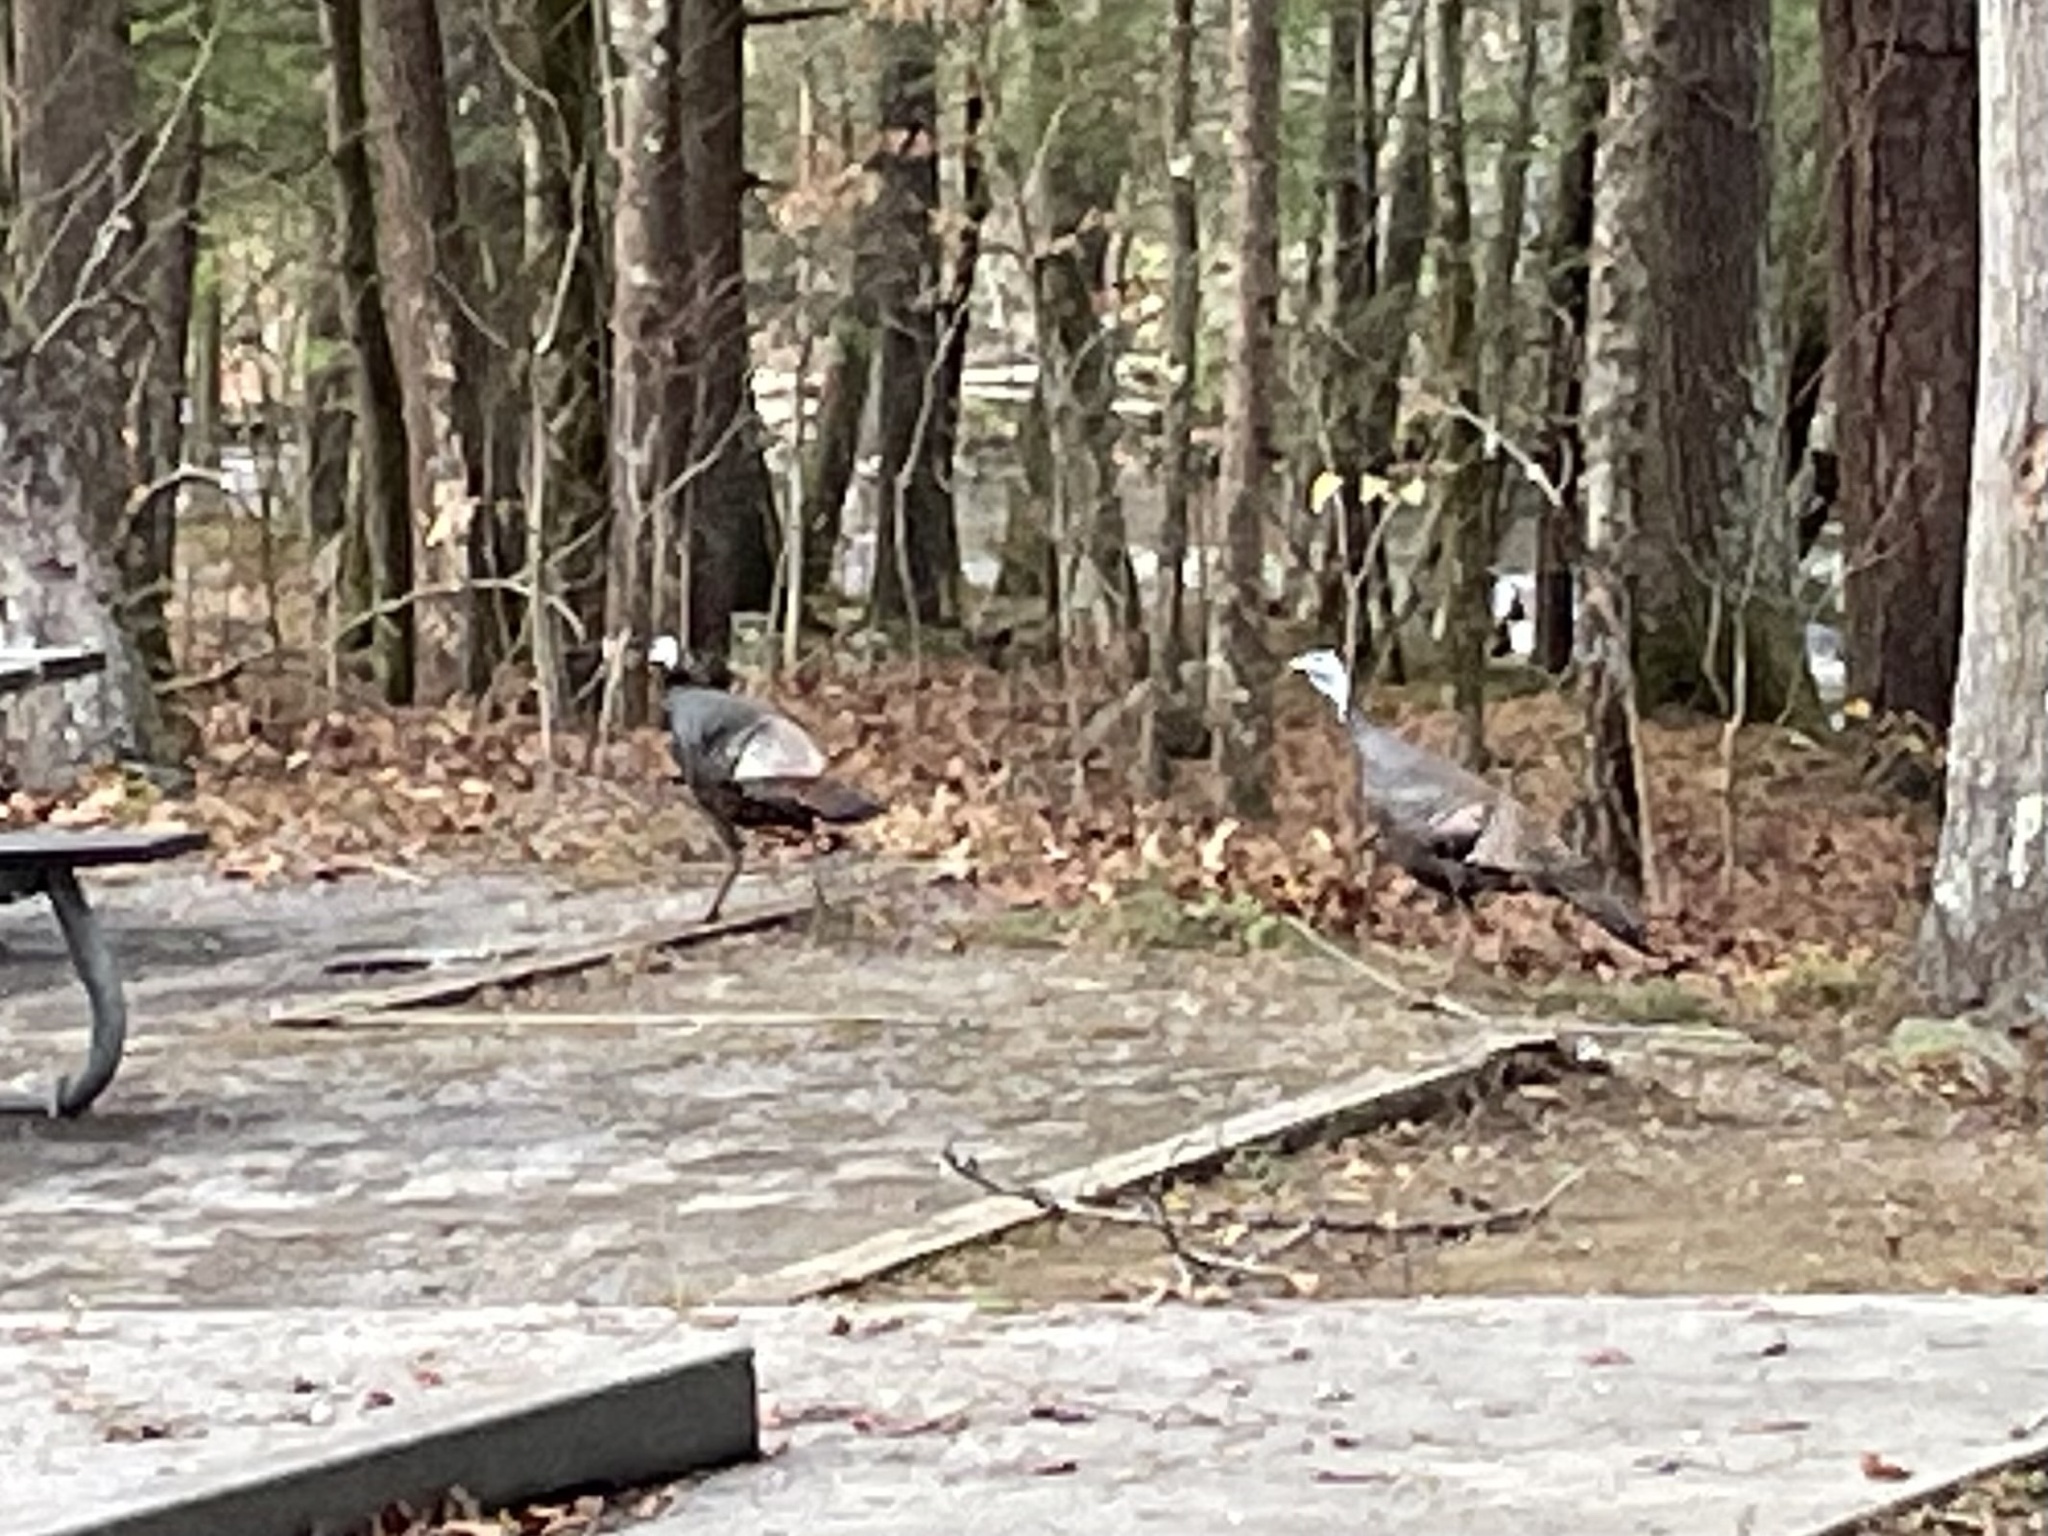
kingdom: Animalia
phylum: Chordata
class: Aves
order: Galliformes
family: Phasianidae
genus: Meleagris
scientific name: Meleagris gallopavo
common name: Wild turkey
